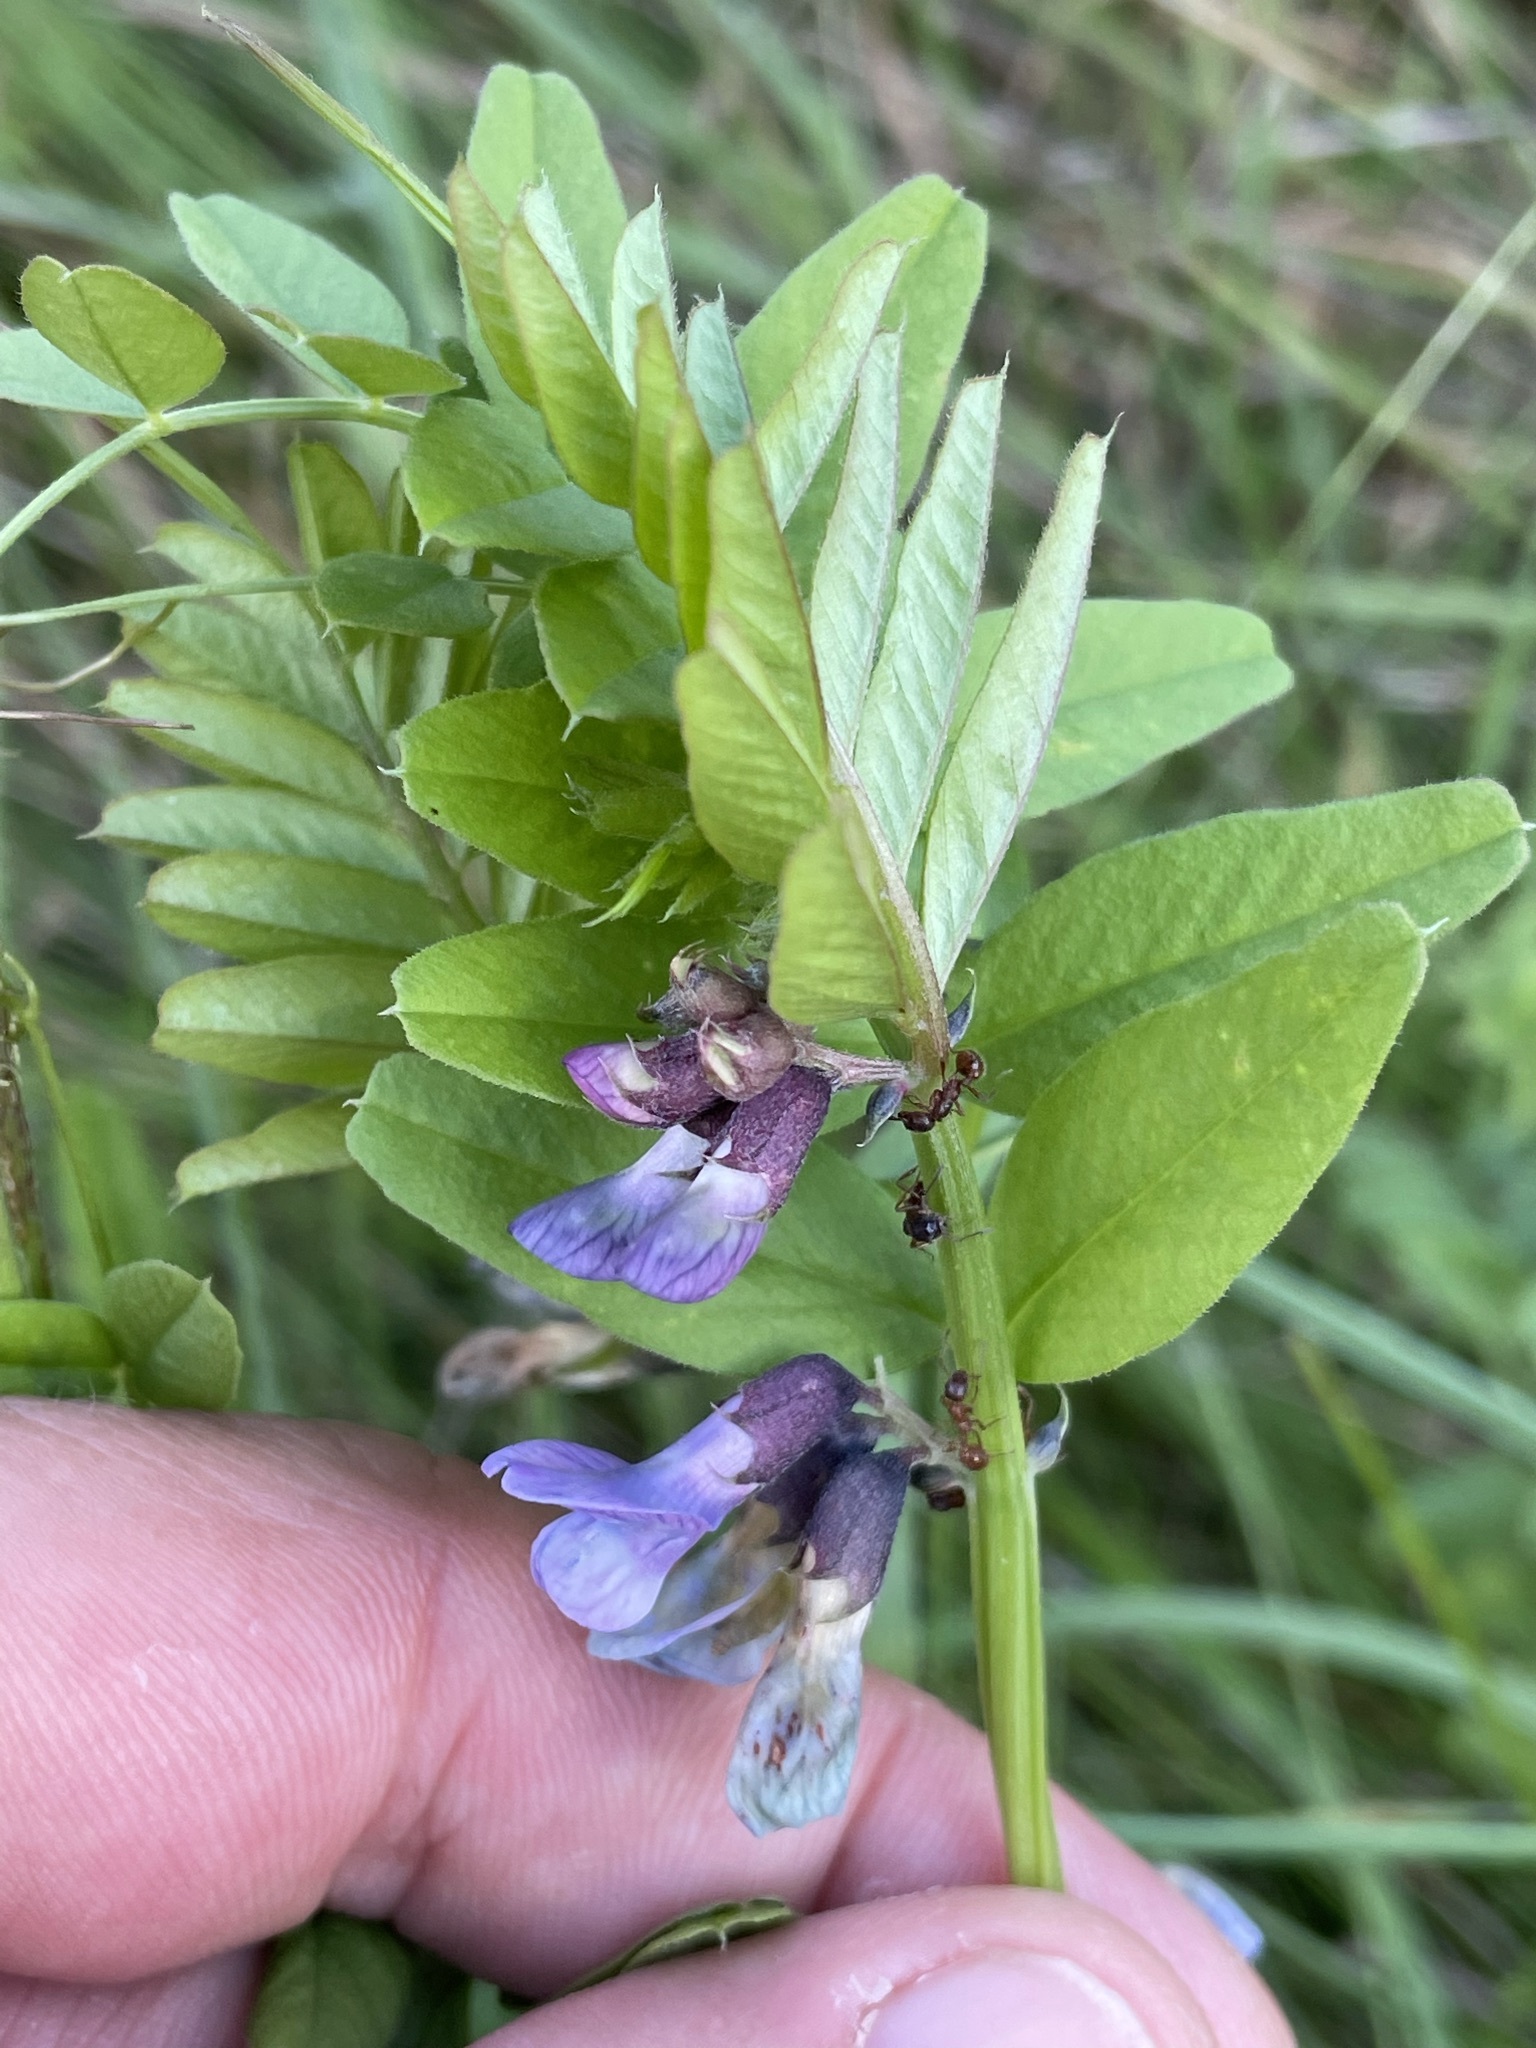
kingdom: Plantae
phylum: Tracheophyta
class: Magnoliopsida
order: Fabales
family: Fabaceae
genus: Vicia
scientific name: Vicia sepium
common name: Bush vetch
